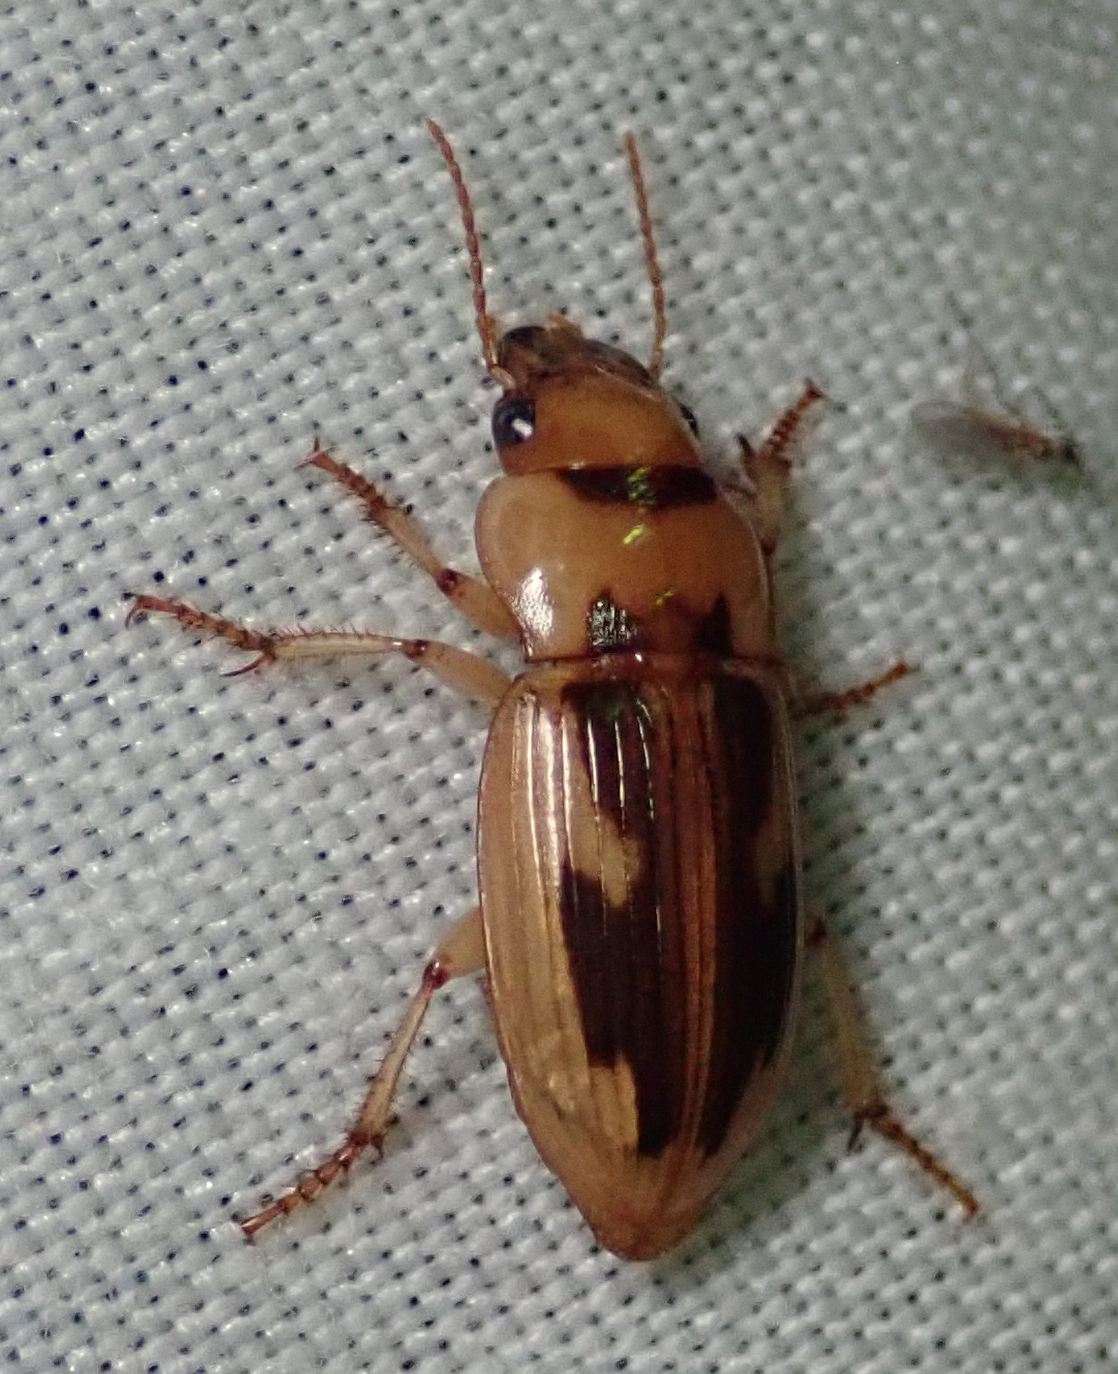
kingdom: Animalia
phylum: Arthropoda
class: Insecta
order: Coleoptera
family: Carabidae
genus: Bradybaenus
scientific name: Bradybaenus opulentus
